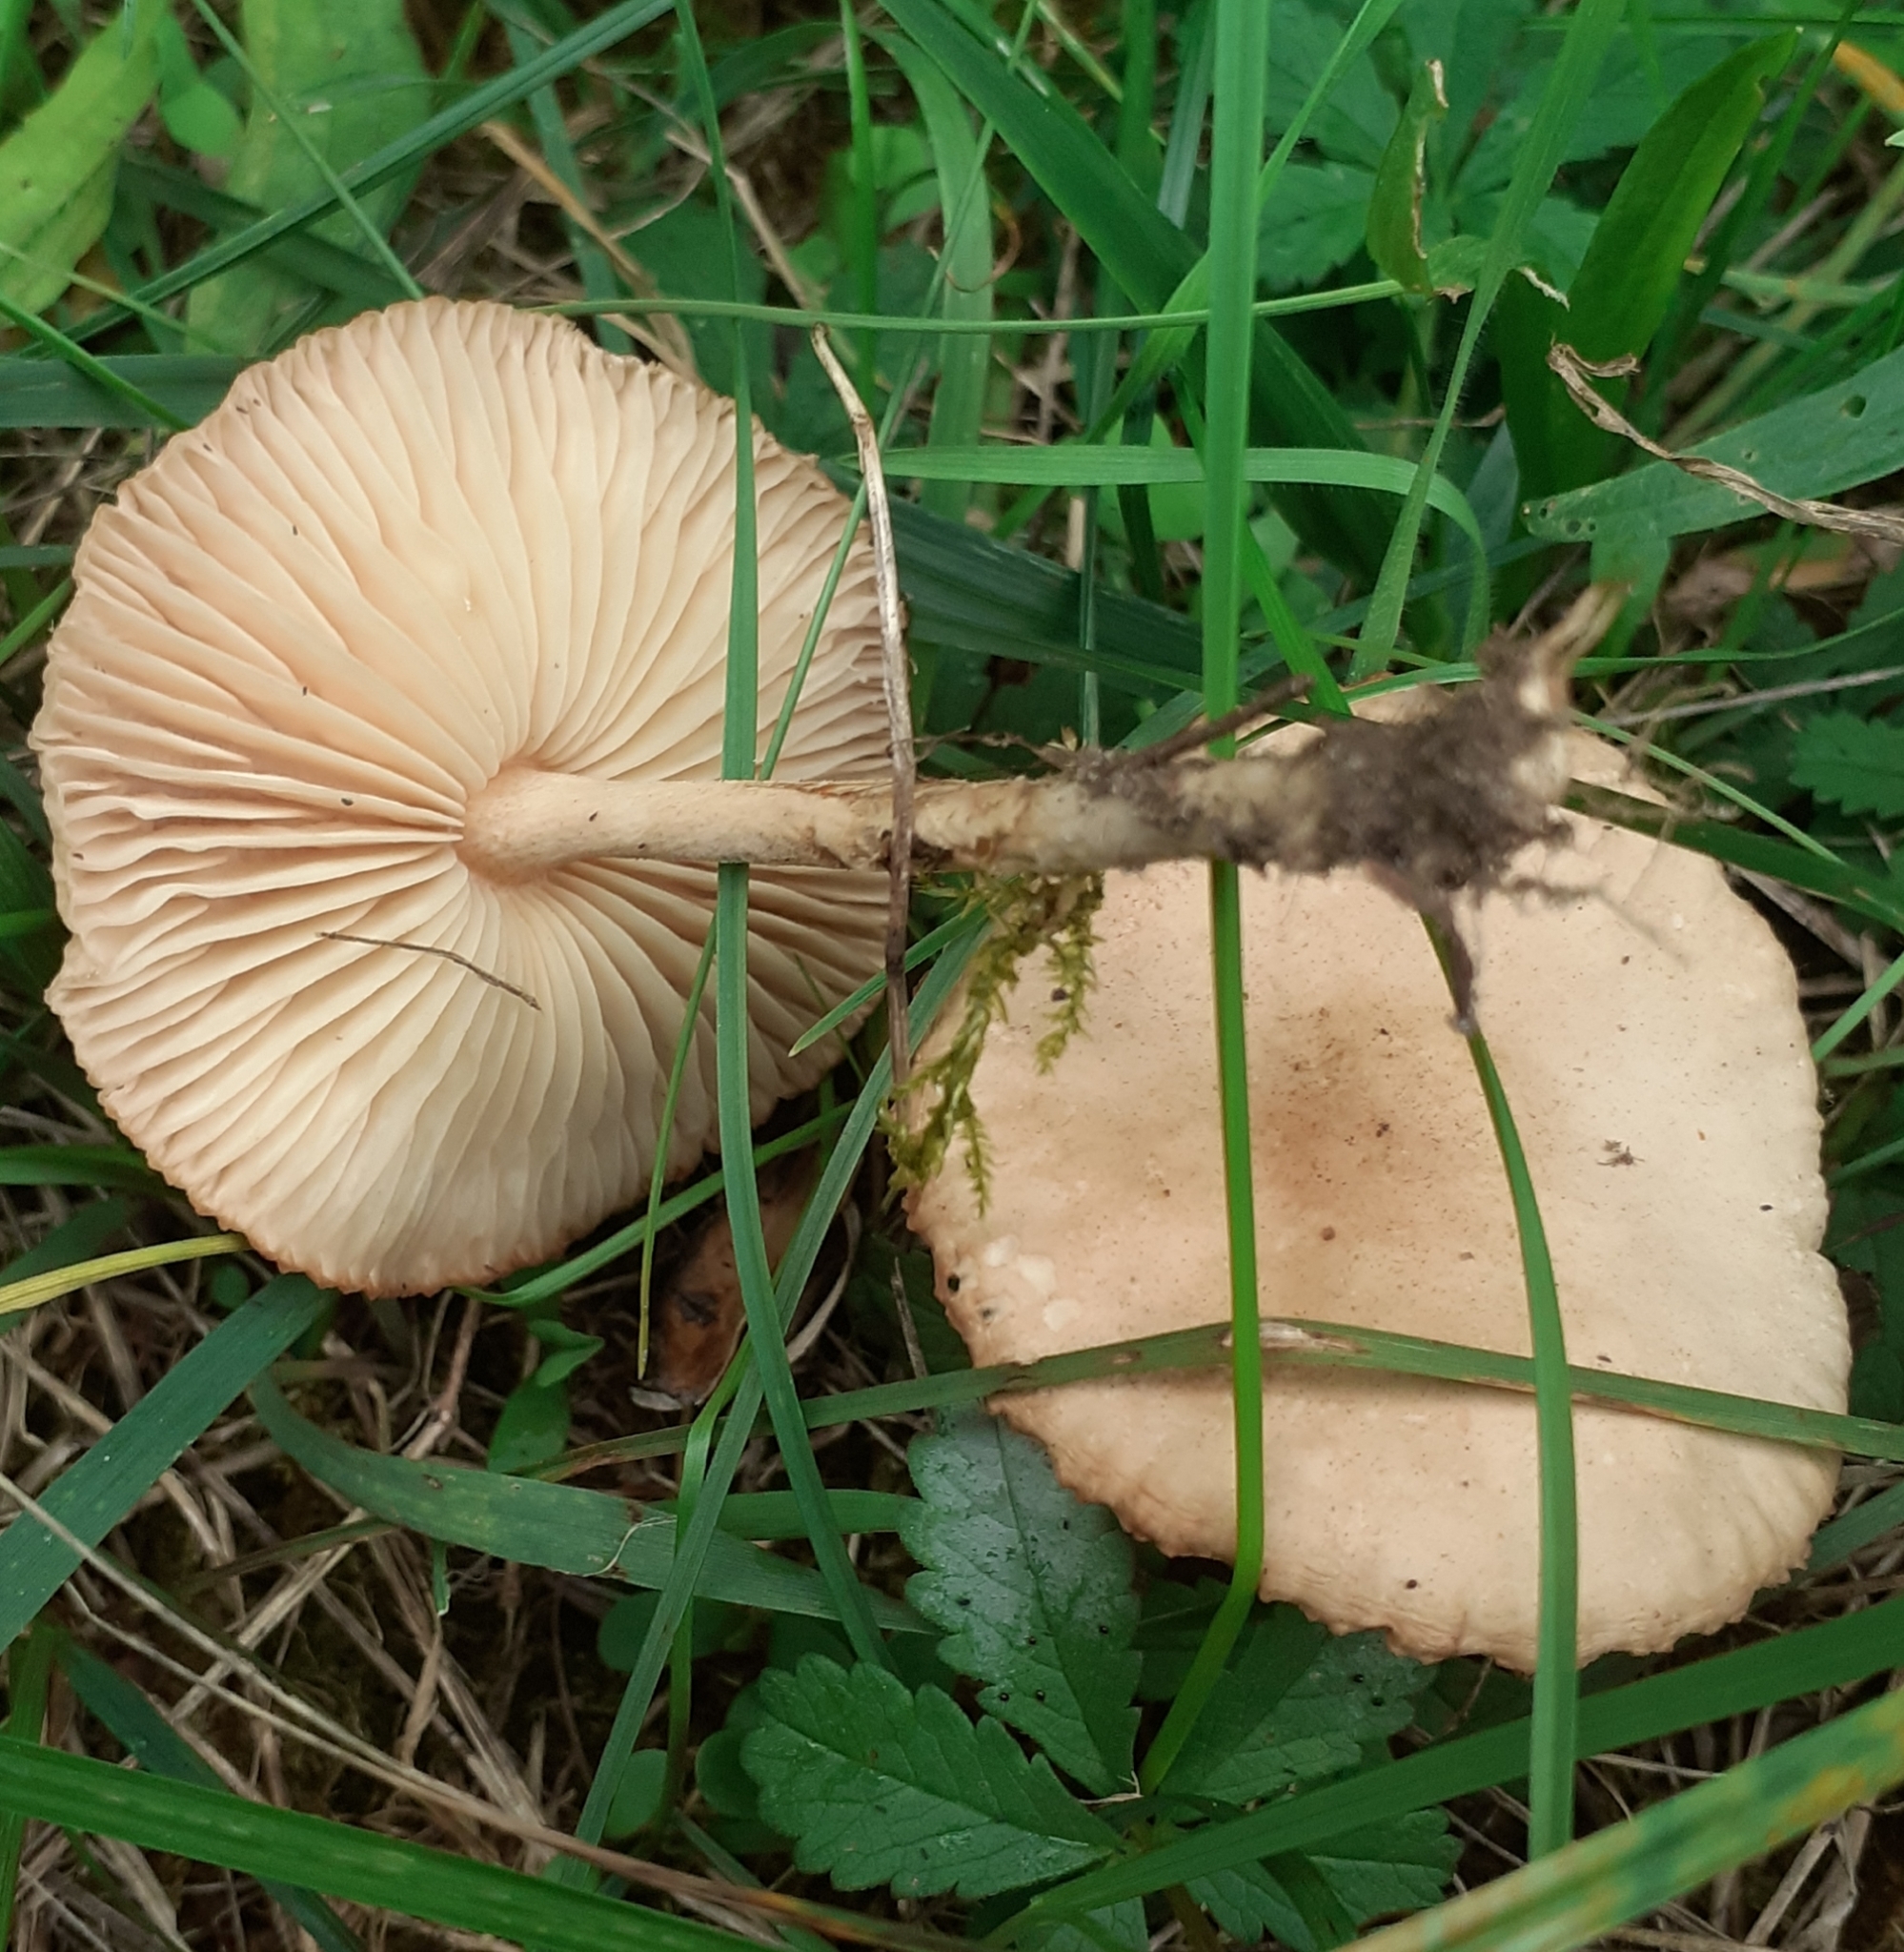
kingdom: Fungi
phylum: Basidiomycota
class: Agaricomycetes
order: Agaricales
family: Marasmiaceae
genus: Marasmius
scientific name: Marasmius oreades
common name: Fairy ring champignon
